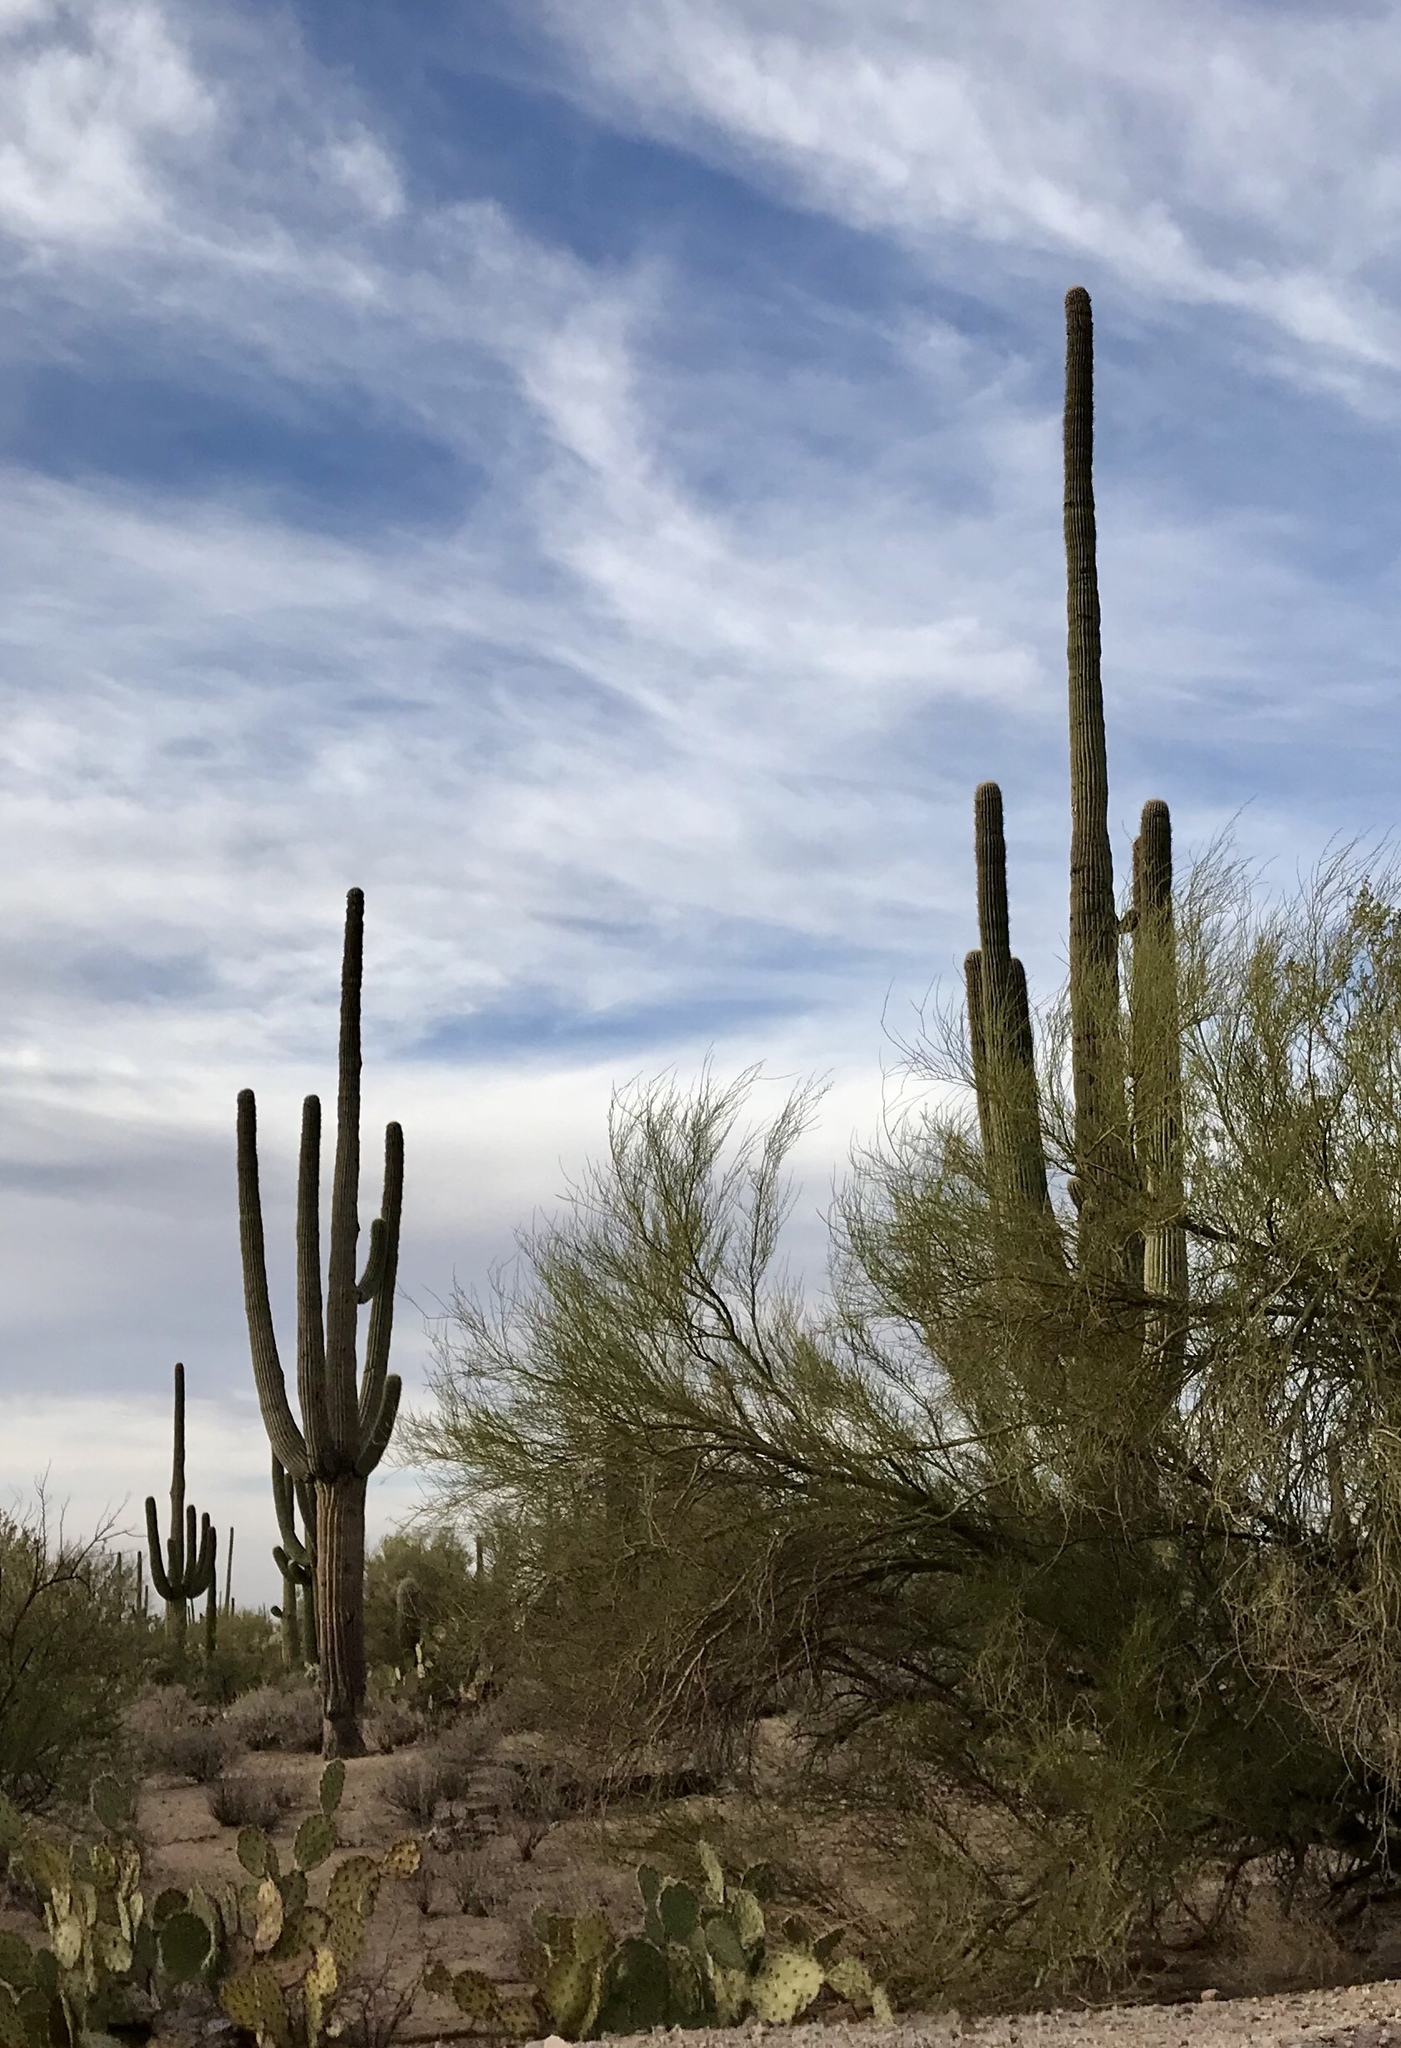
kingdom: Plantae
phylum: Tracheophyta
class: Magnoliopsida
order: Caryophyllales
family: Cactaceae
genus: Carnegiea
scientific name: Carnegiea gigantea
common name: Saguaro
